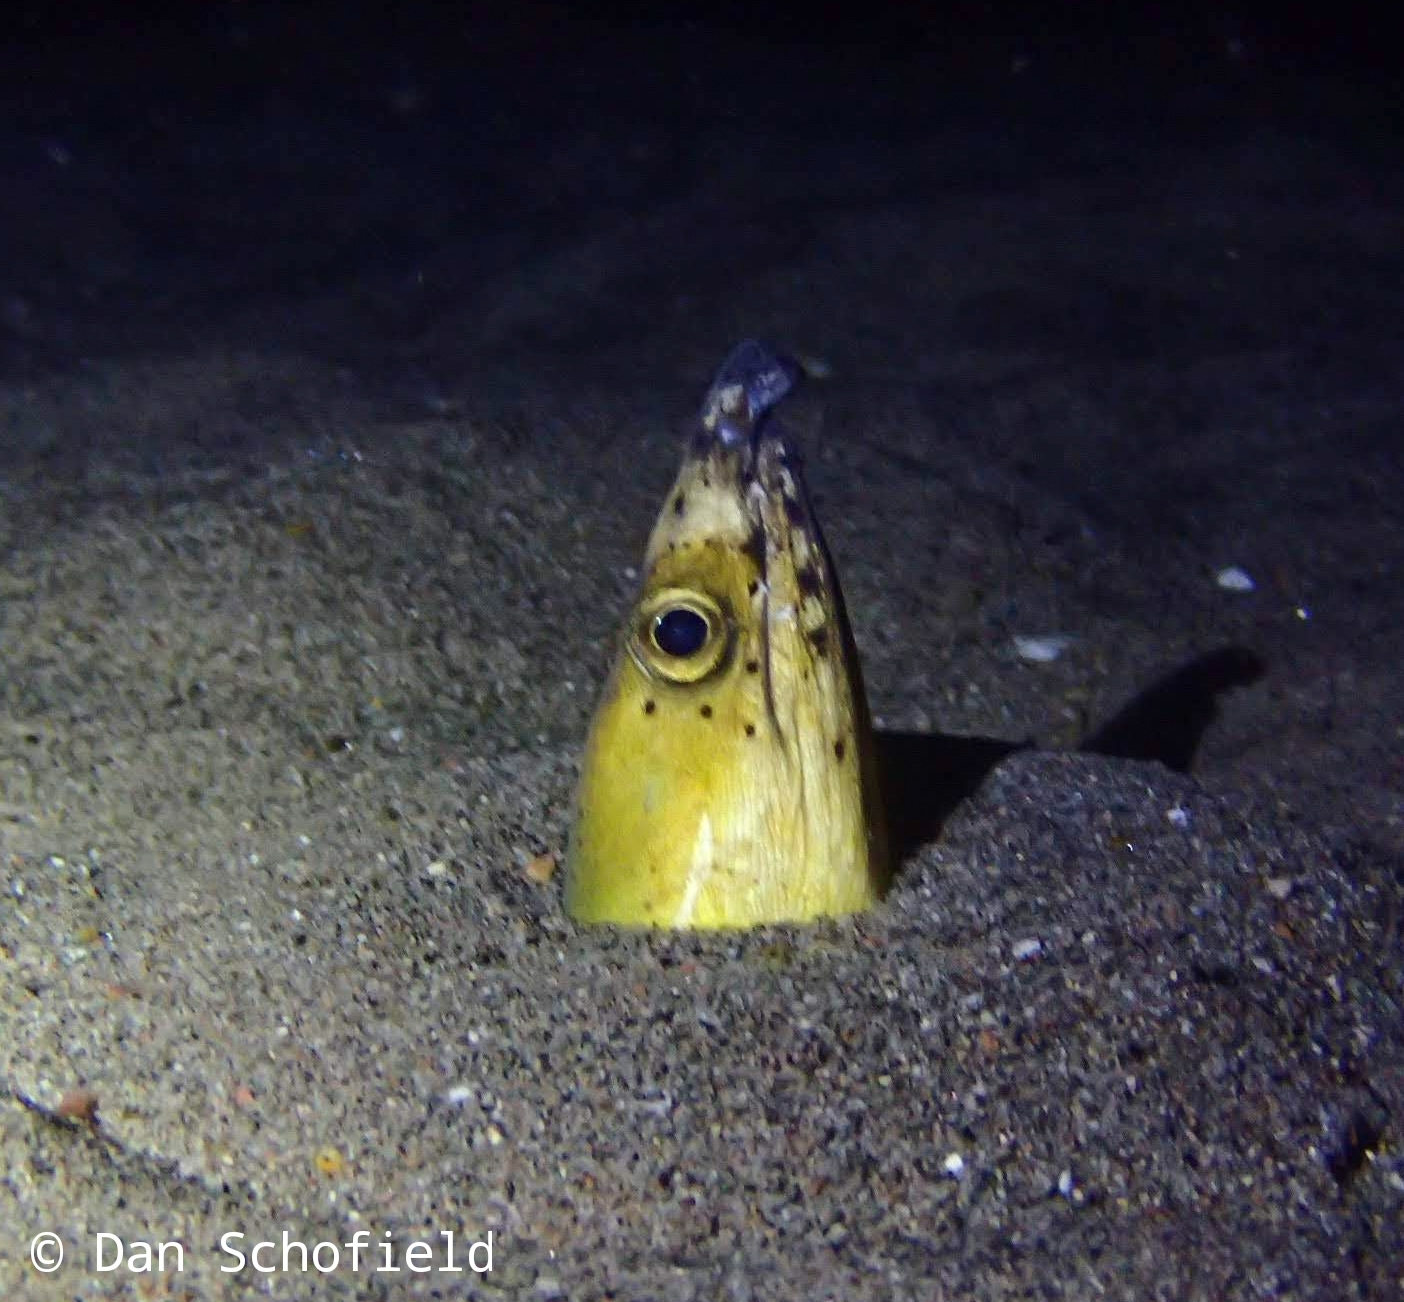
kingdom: Animalia
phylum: Chordata
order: Anguilliformes
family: Ophichthidae
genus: Ophichthus
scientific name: Ophichthus altipennis
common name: Highfin snake eel
